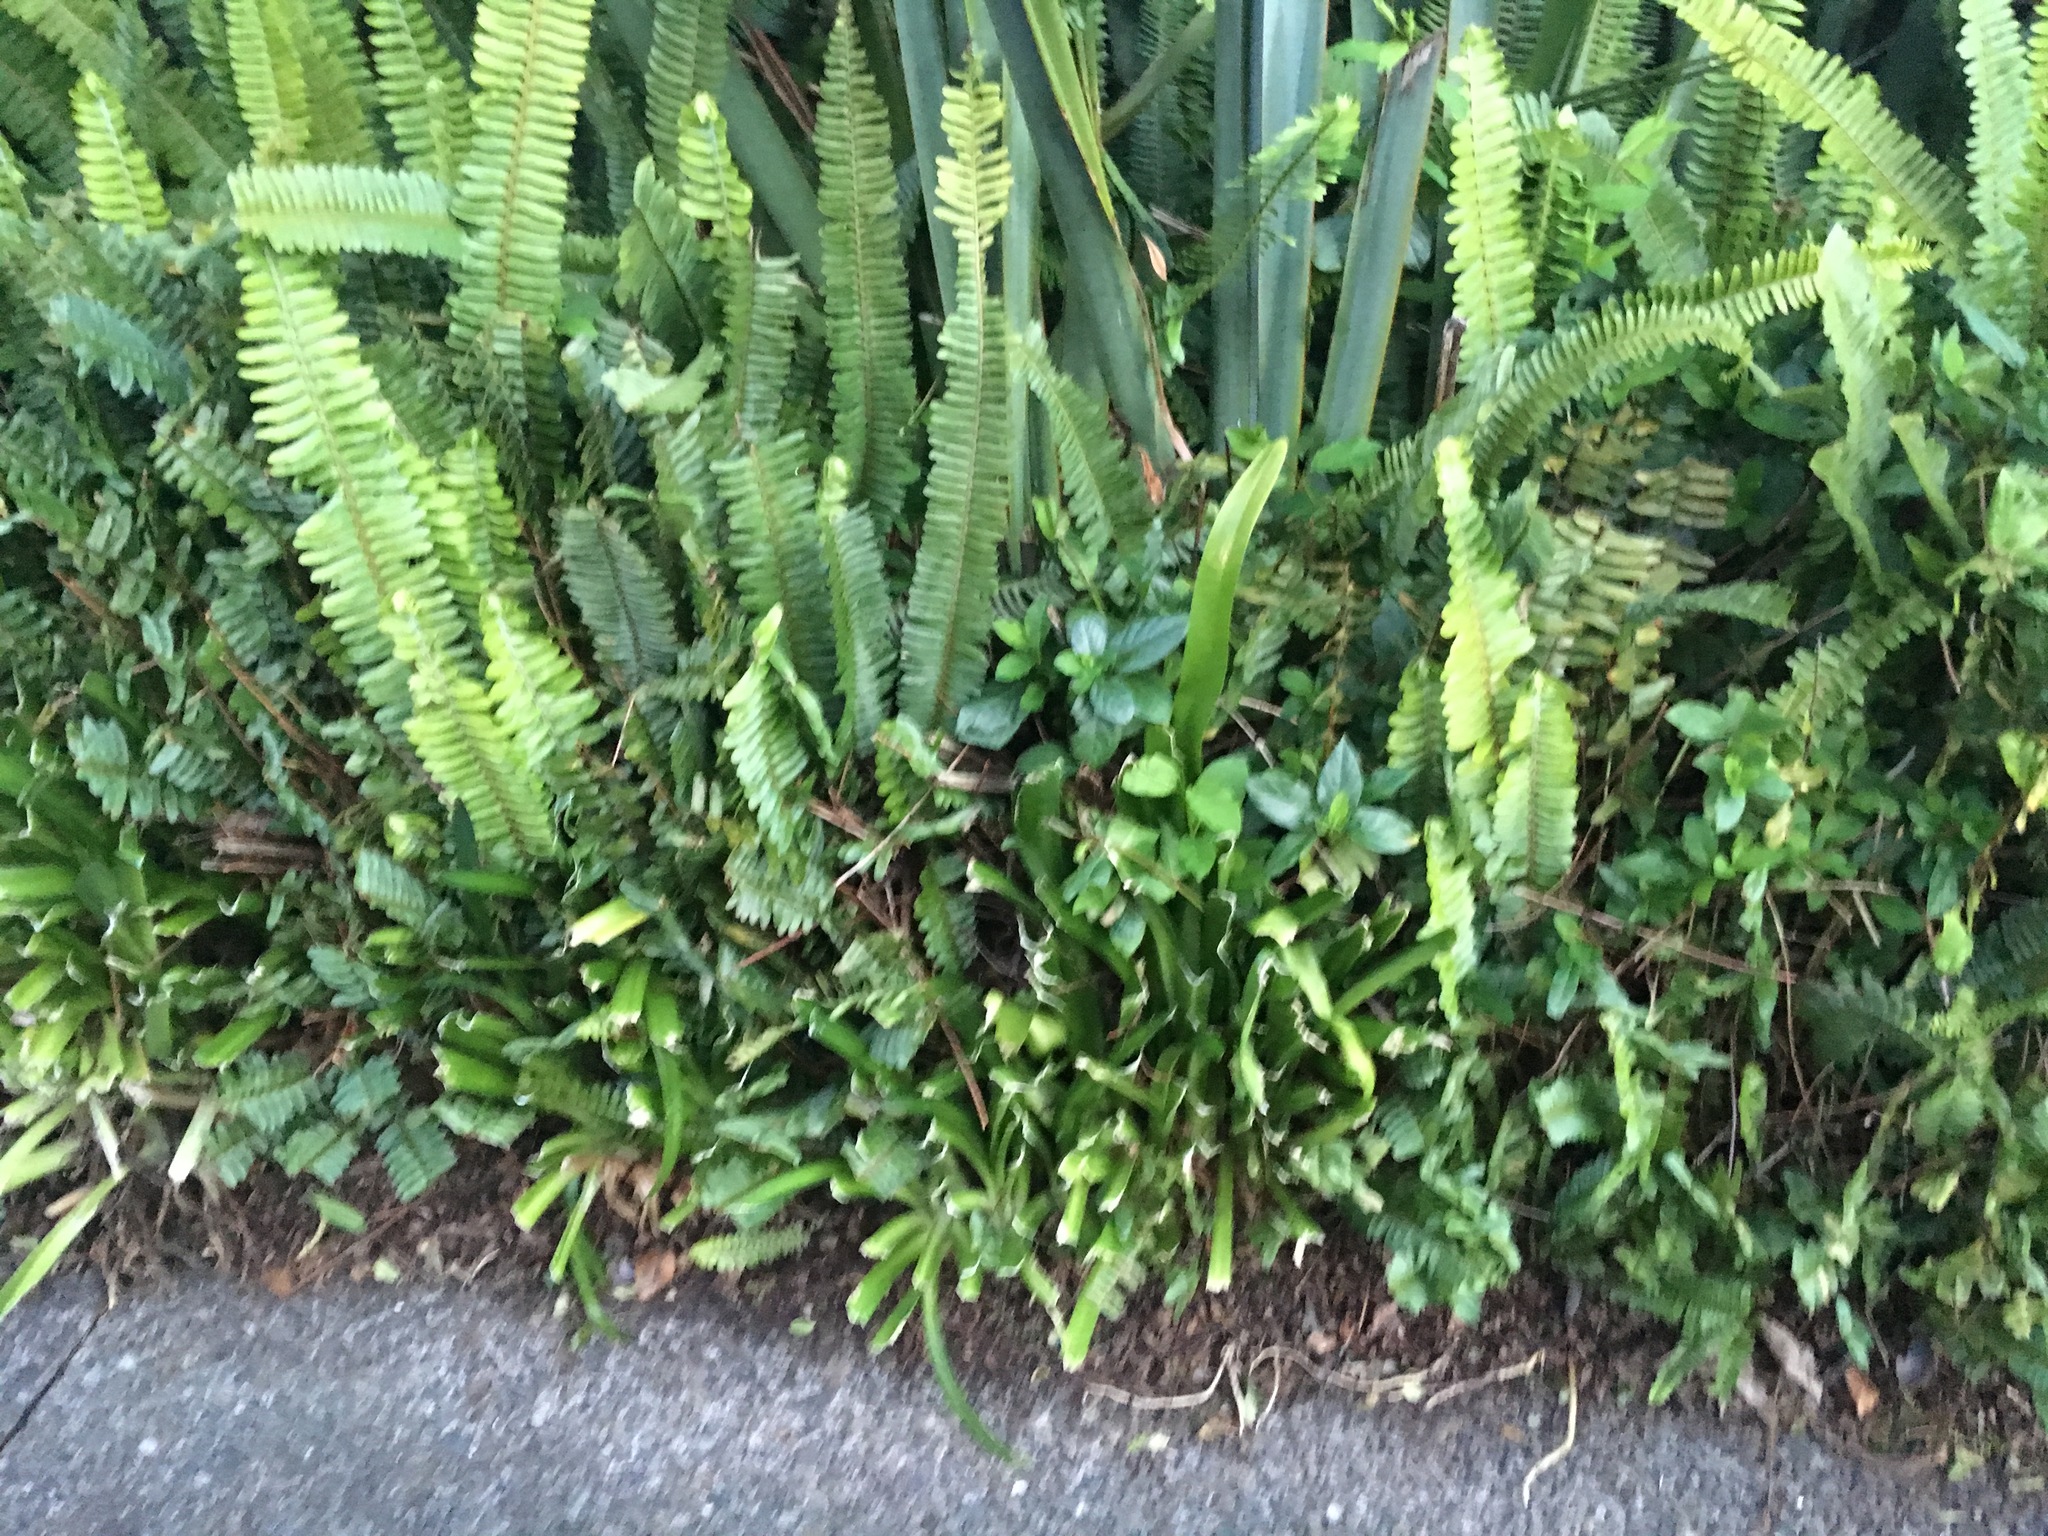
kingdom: Plantae
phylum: Tracheophyta
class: Polypodiopsida
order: Polypodiales
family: Nephrolepidaceae
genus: Nephrolepis
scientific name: Nephrolepis cordifolia
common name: Narrow swordfern
